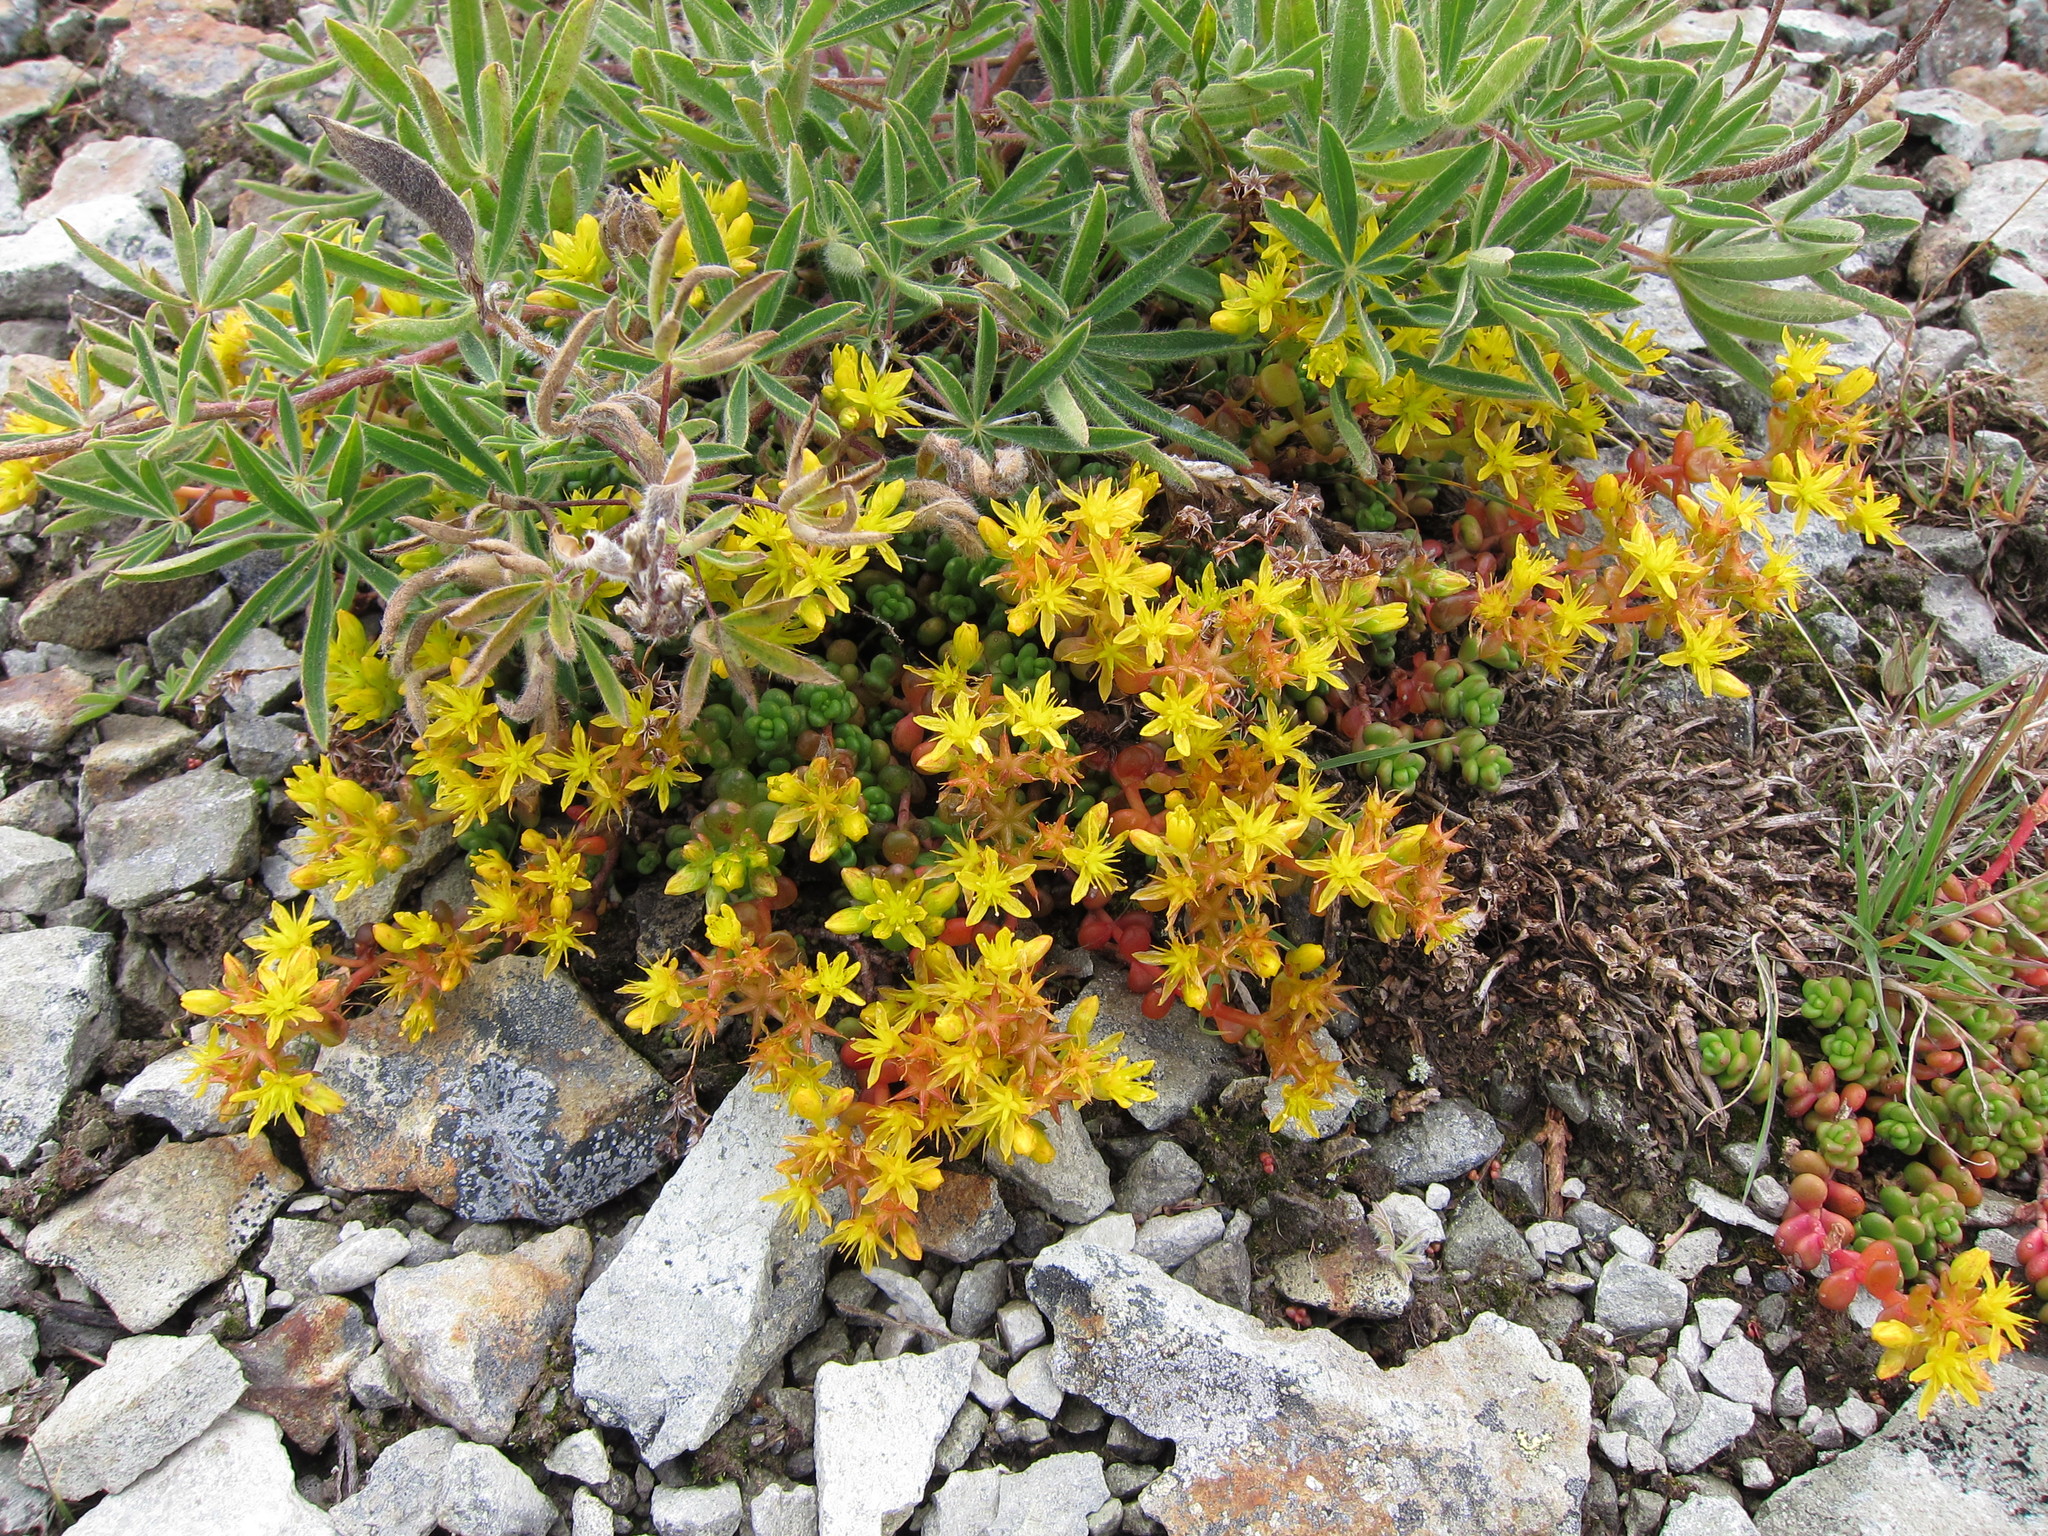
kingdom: Plantae
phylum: Tracheophyta
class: Magnoliopsida
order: Saxifragales
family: Crassulaceae
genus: Sedum
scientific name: Sedum divergens
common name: Cascade stonecrop
